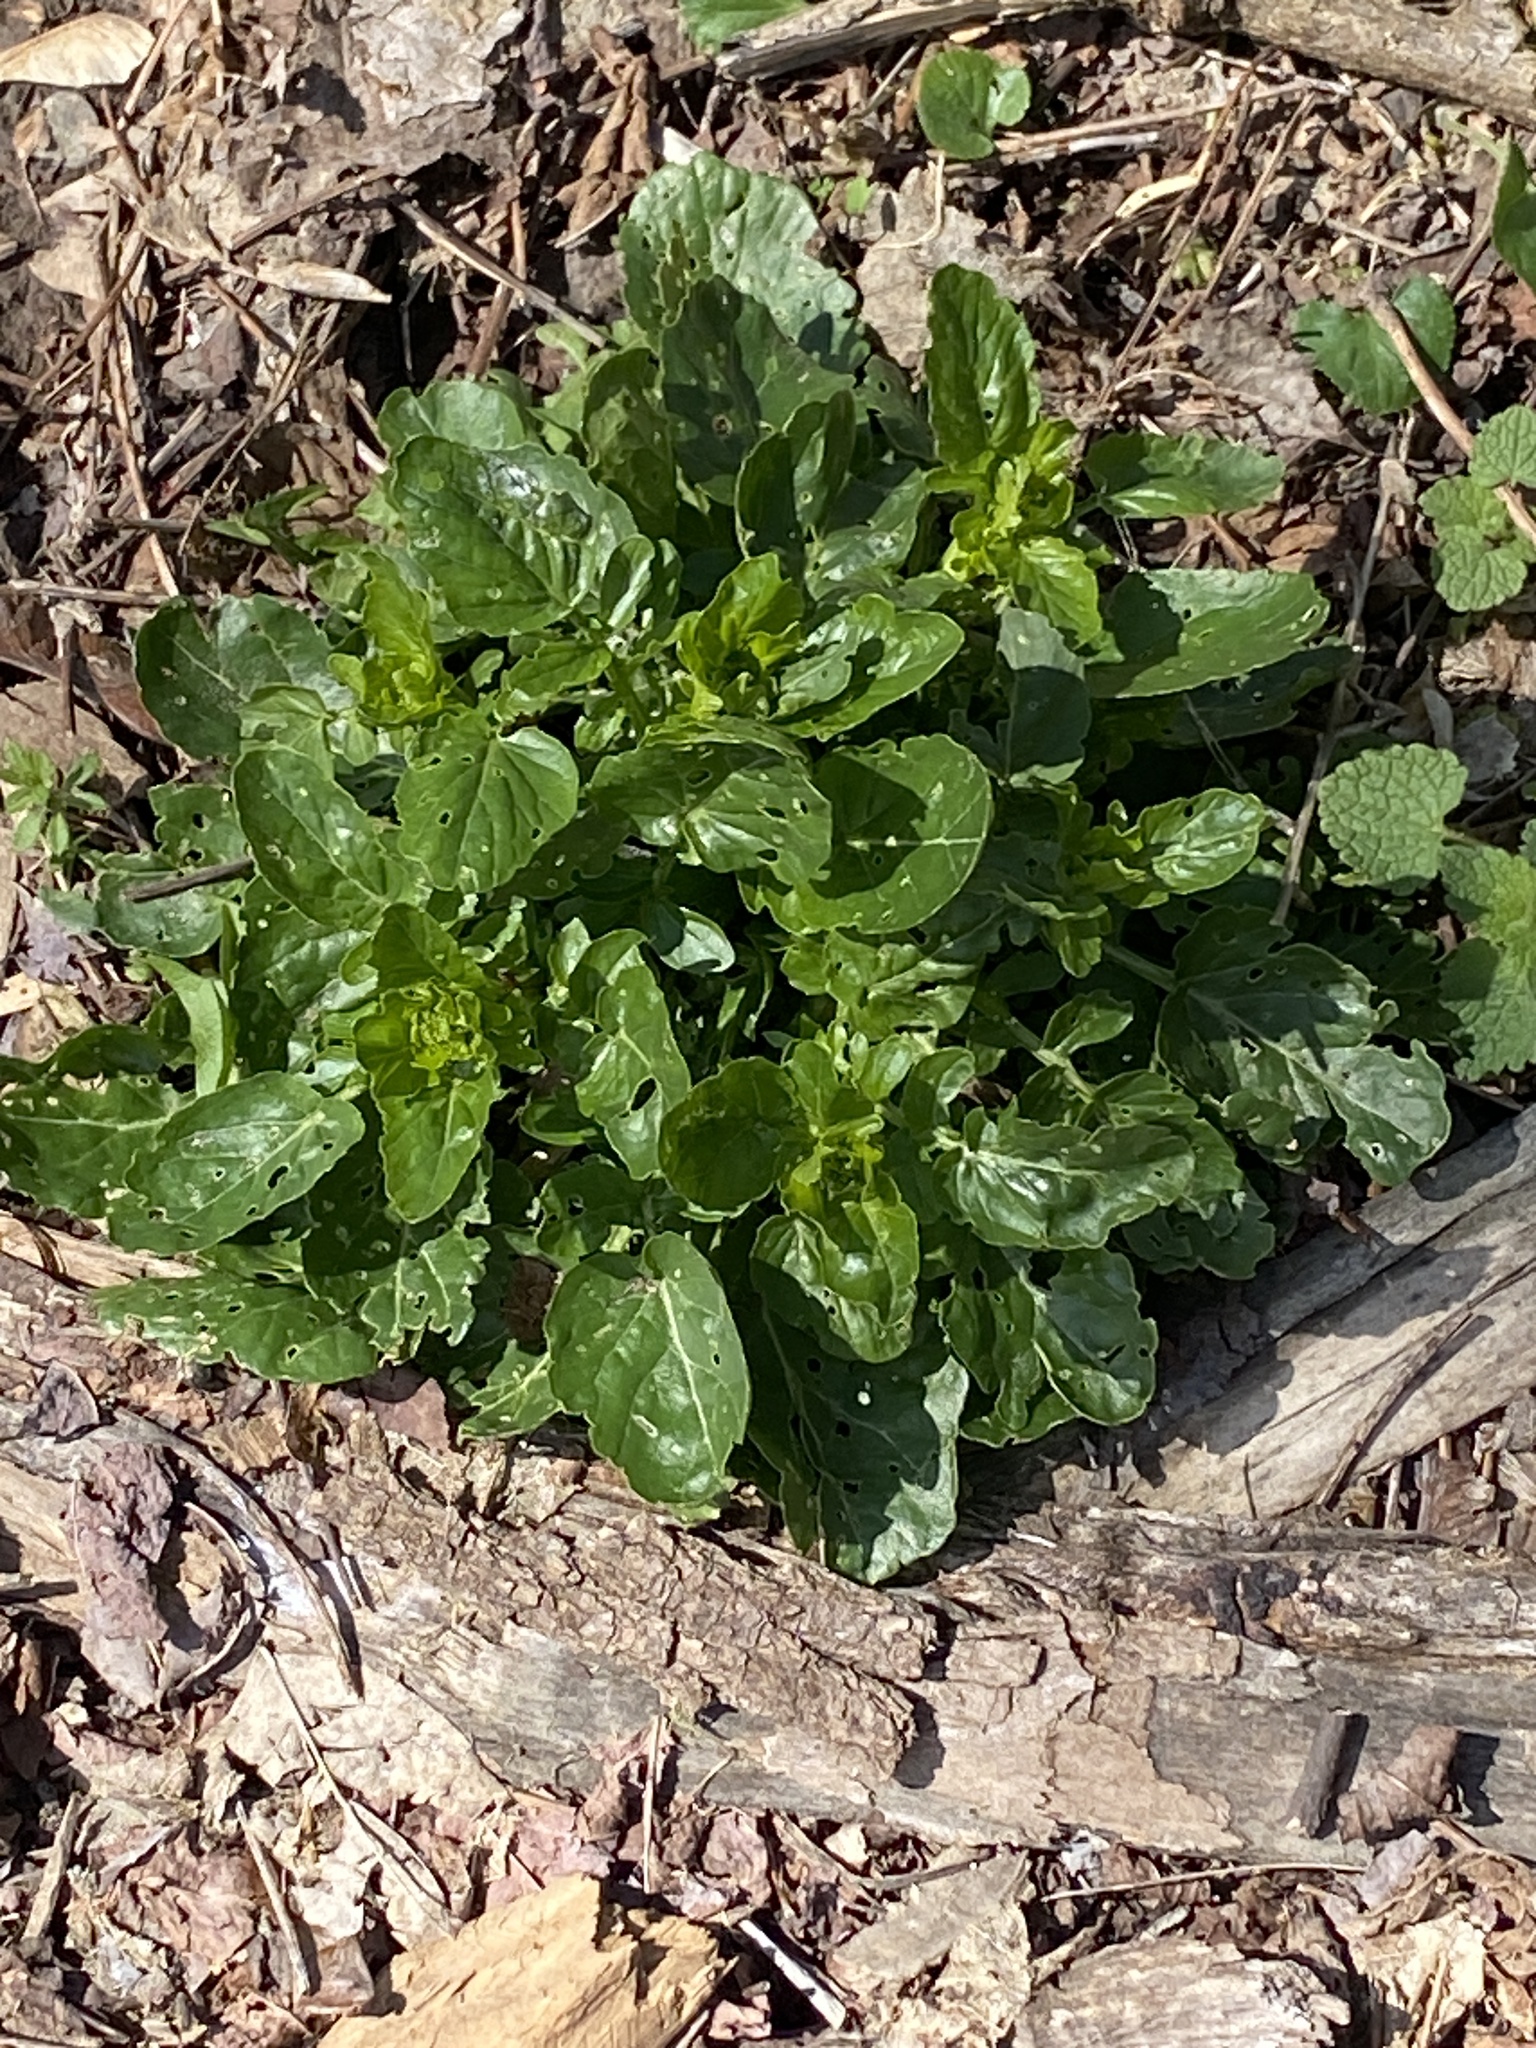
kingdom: Plantae
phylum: Tracheophyta
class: Magnoliopsida
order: Brassicales
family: Brassicaceae
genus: Barbarea
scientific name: Barbarea vulgaris
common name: Cressy-greens
